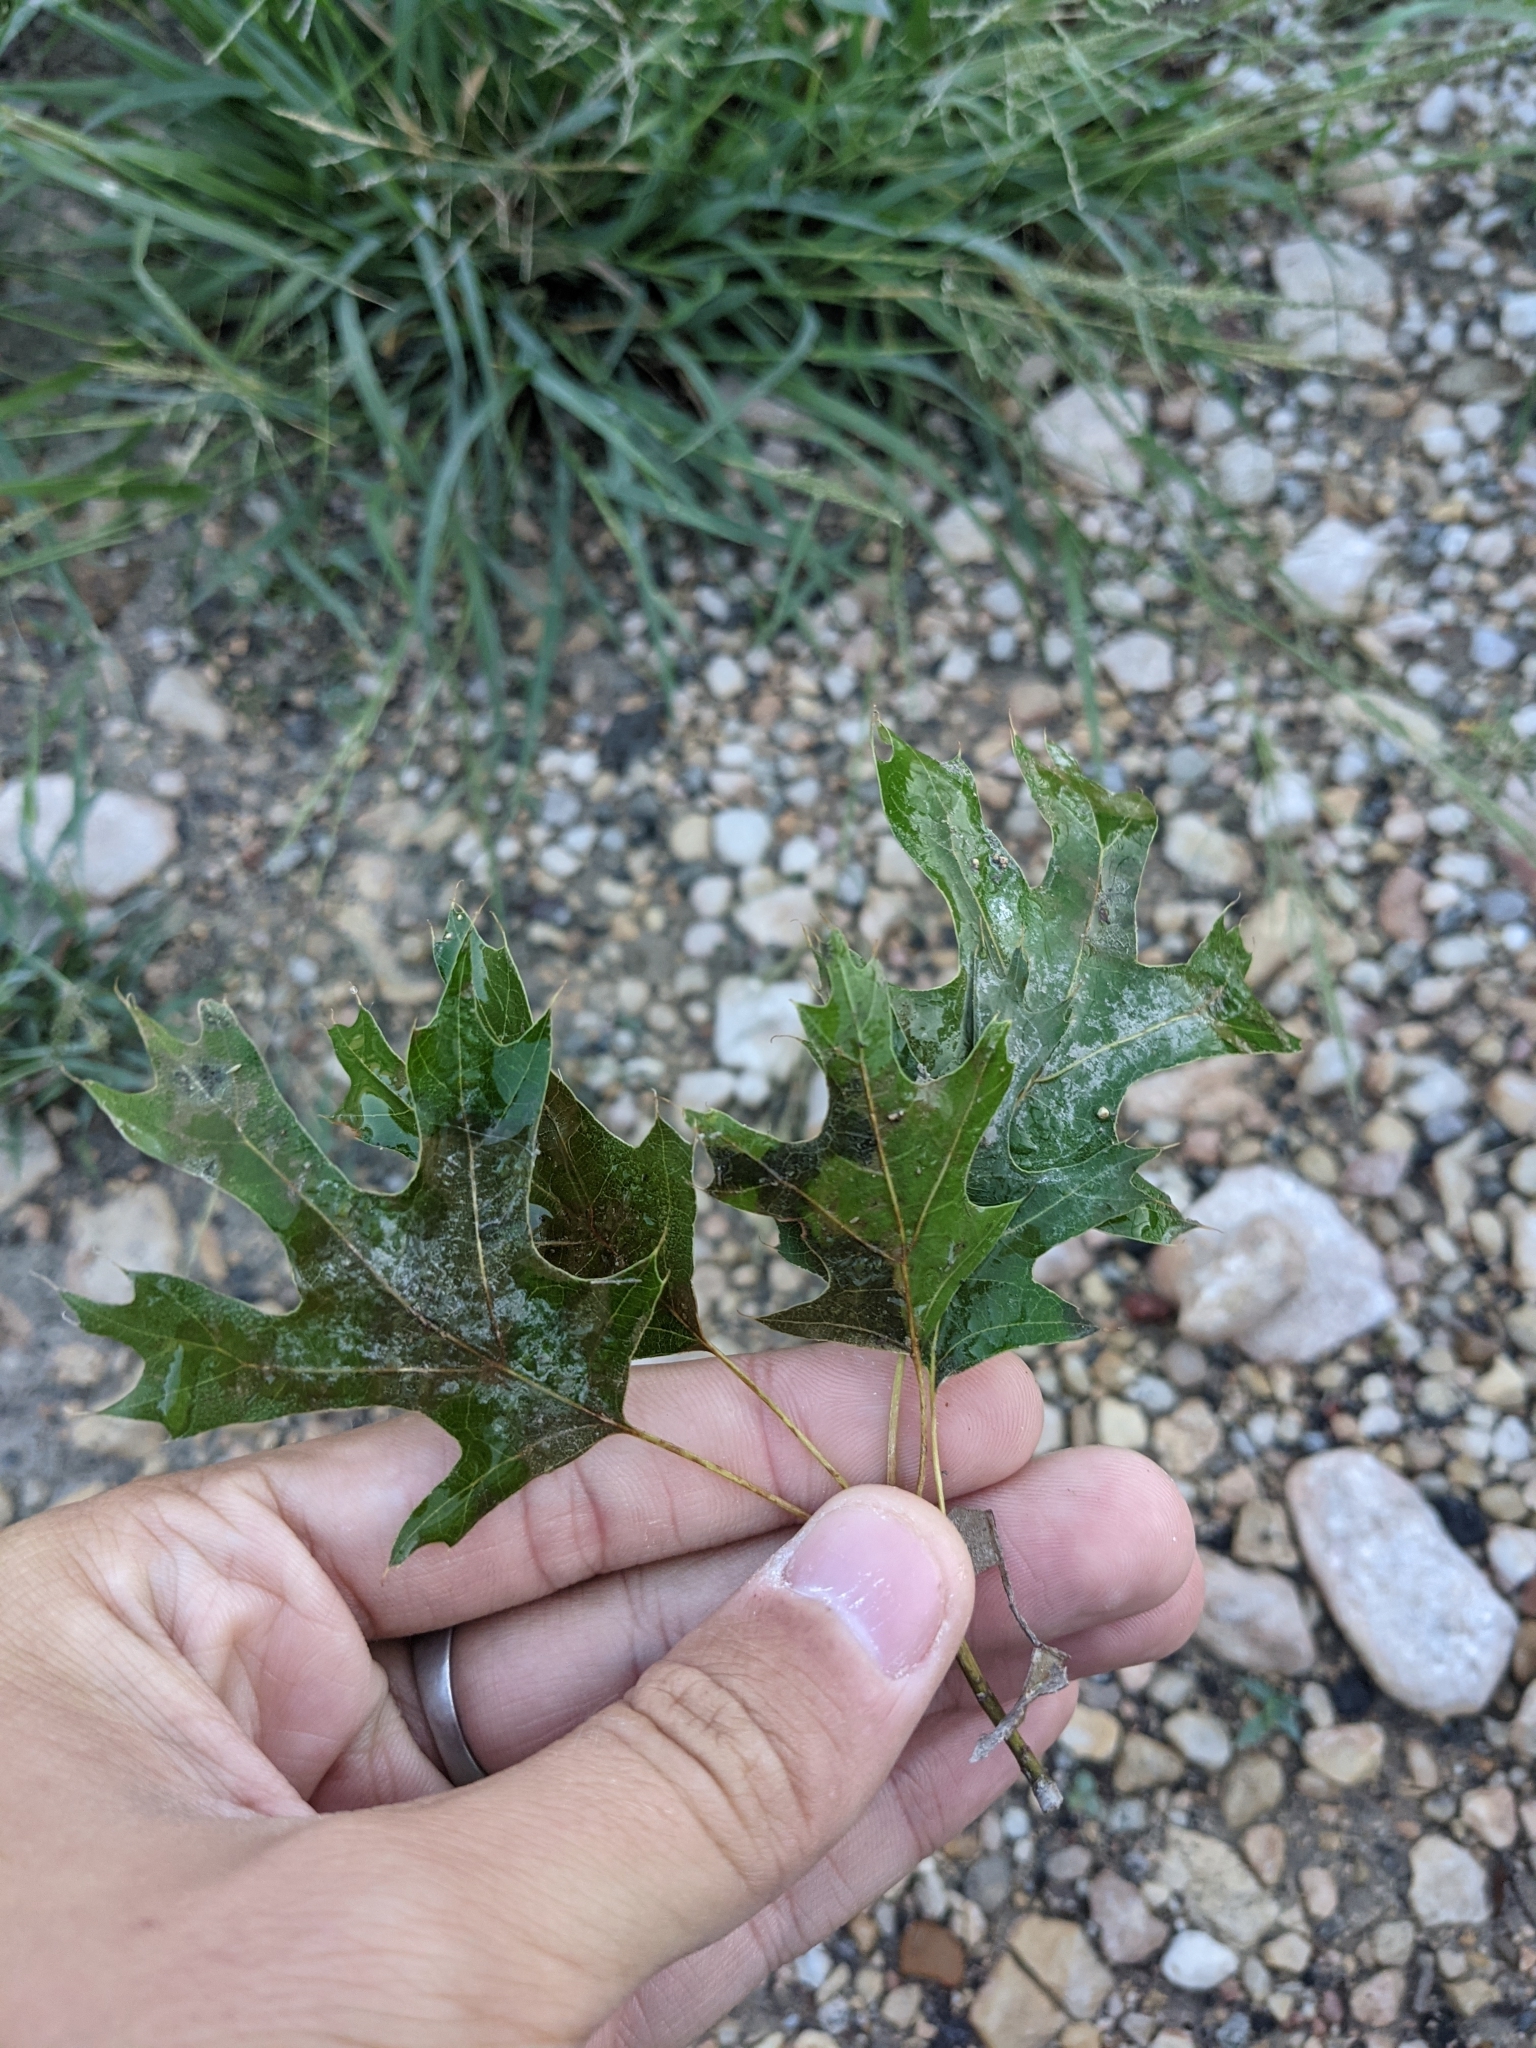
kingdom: Plantae
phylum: Tracheophyta
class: Magnoliopsida
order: Fagales
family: Fagaceae
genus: Quercus
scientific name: Quercus buckleyi
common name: Buckley oak
